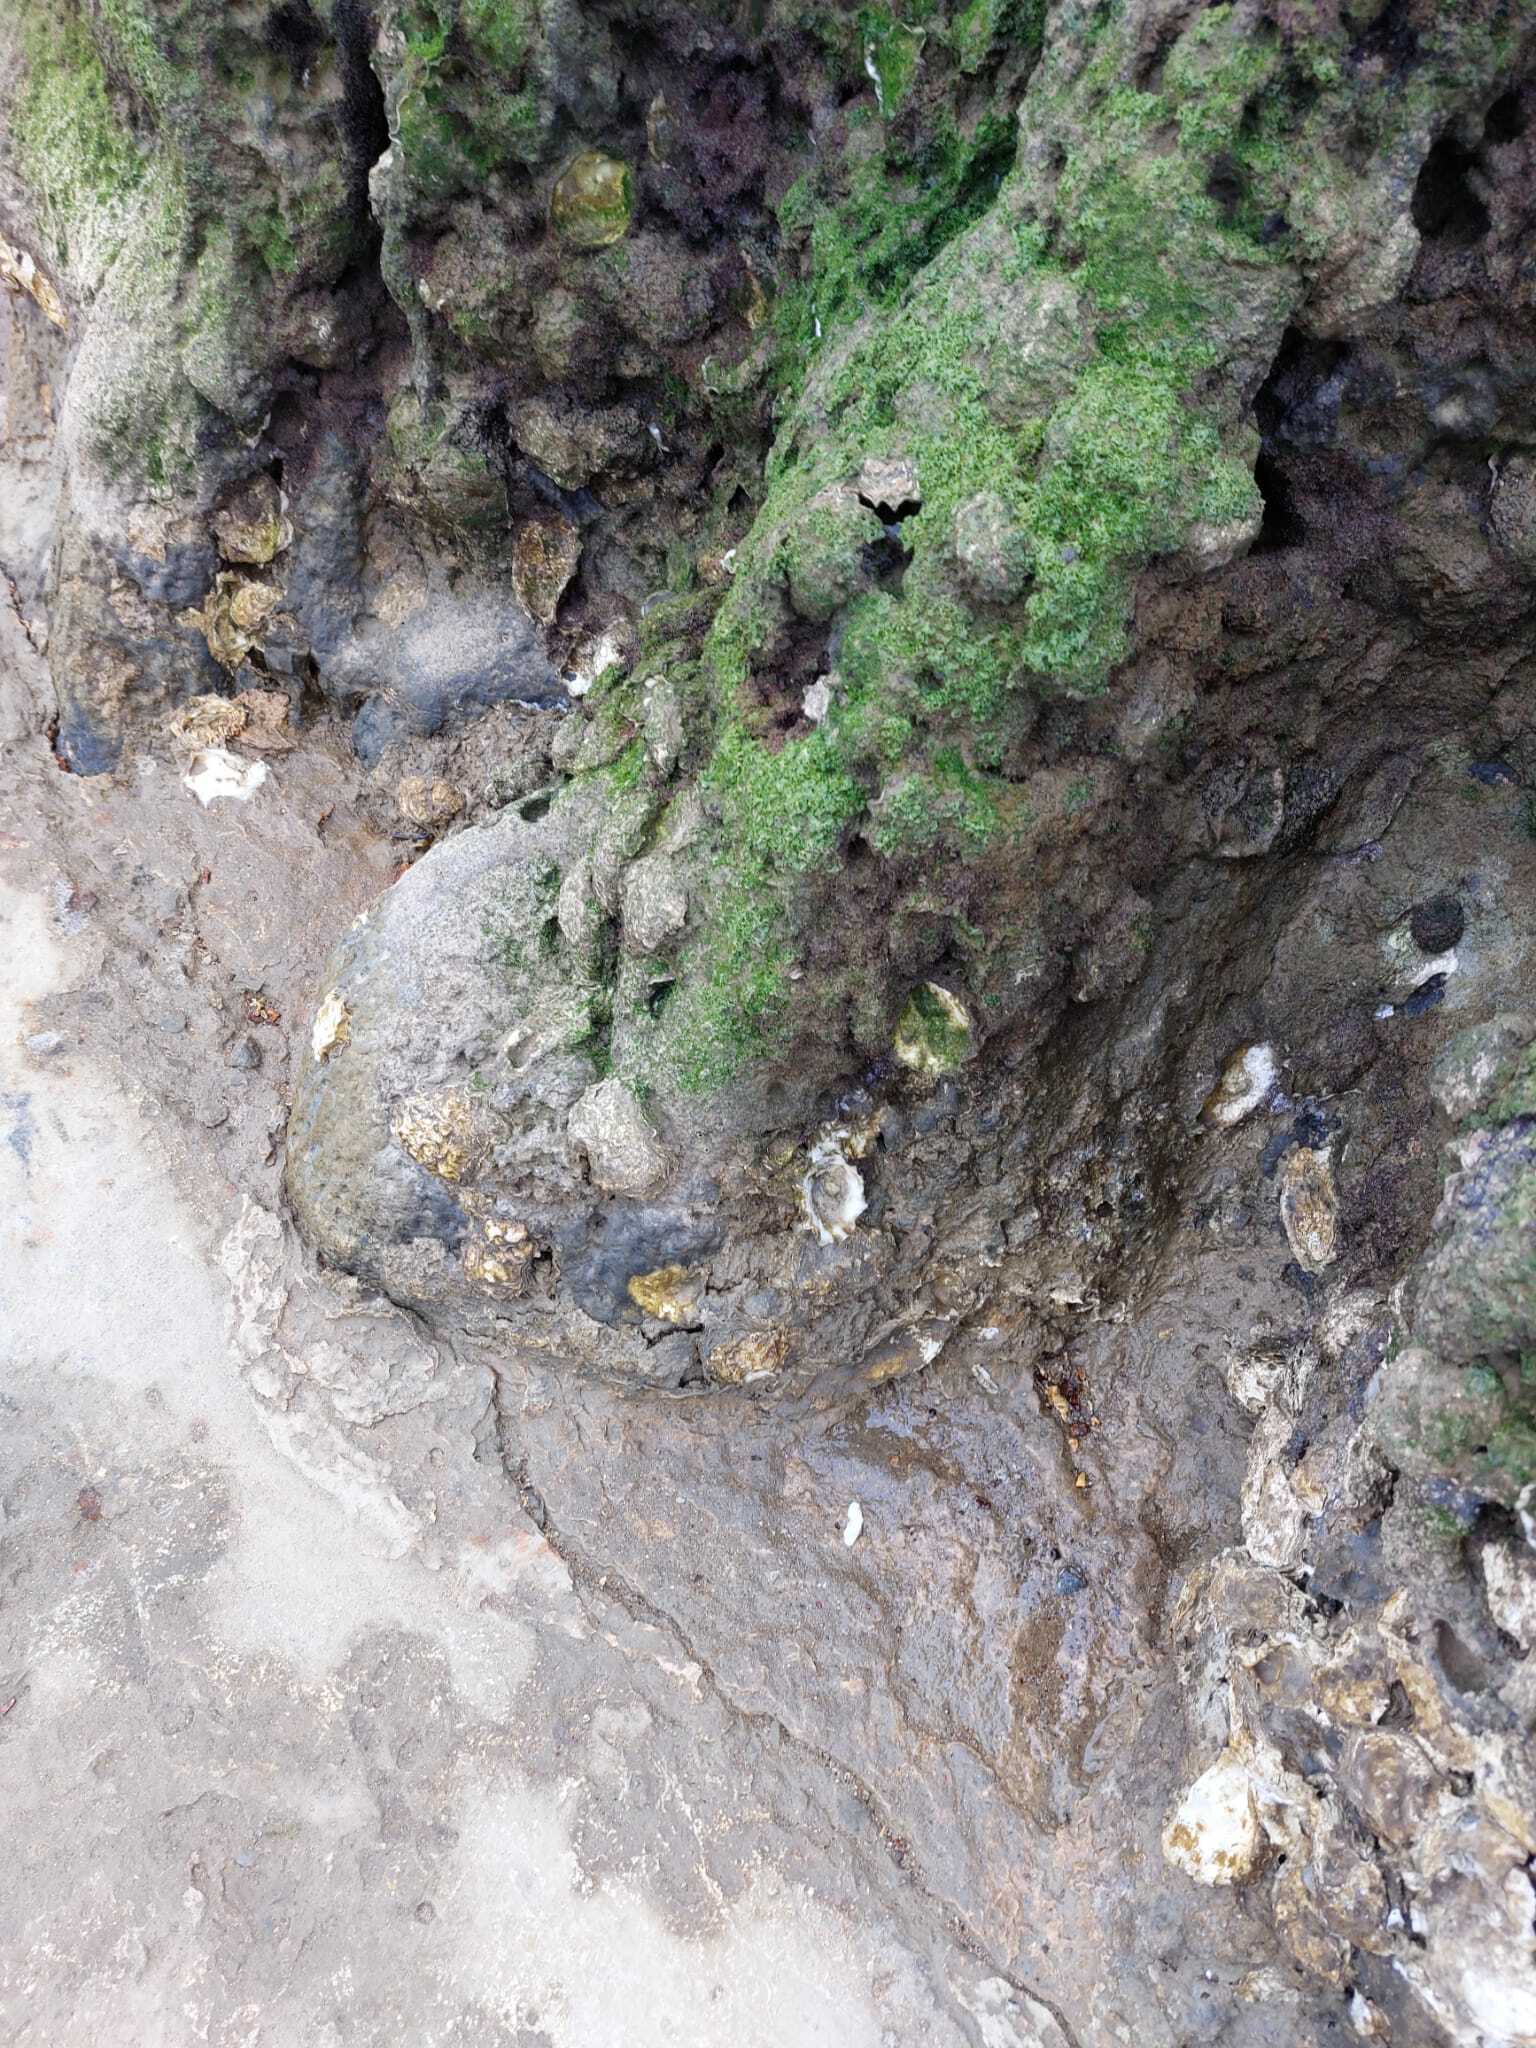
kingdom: Animalia
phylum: Mollusca
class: Bivalvia
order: Ostreida
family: Ostreidae
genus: Magallana
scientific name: Magallana gigas
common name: Pacific oyster
